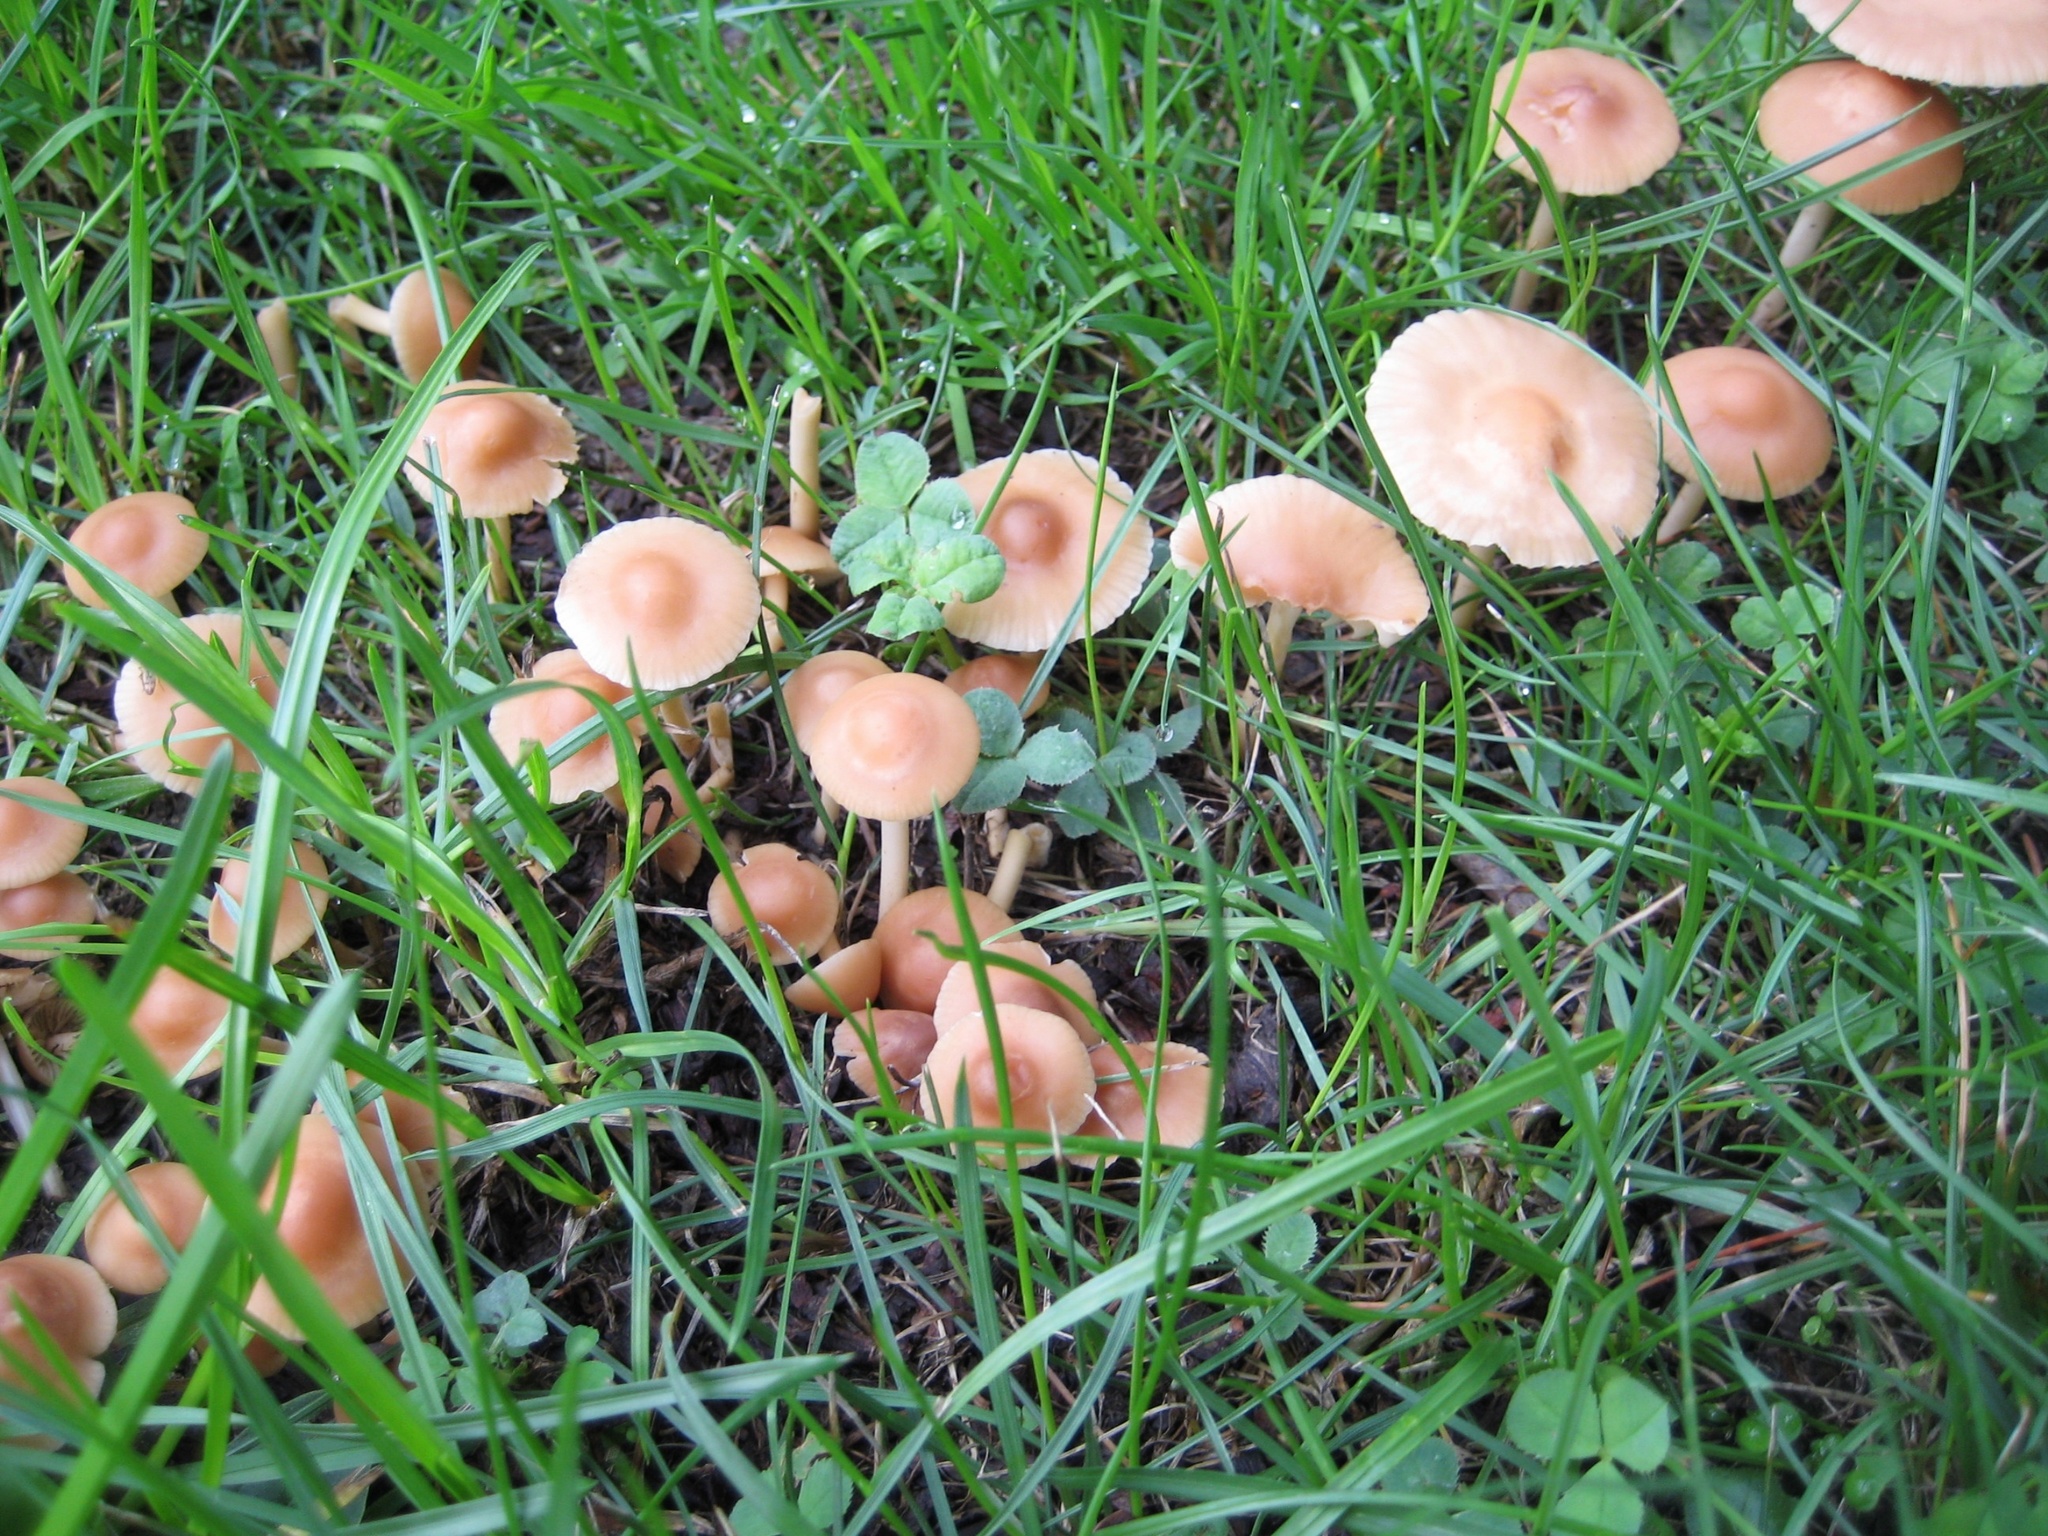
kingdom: Fungi
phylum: Basidiomycota
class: Agaricomycetes
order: Agaricales
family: Marasmiaceae
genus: Marasmius
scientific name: Marasmius oreades
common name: Fairy ring champignon
